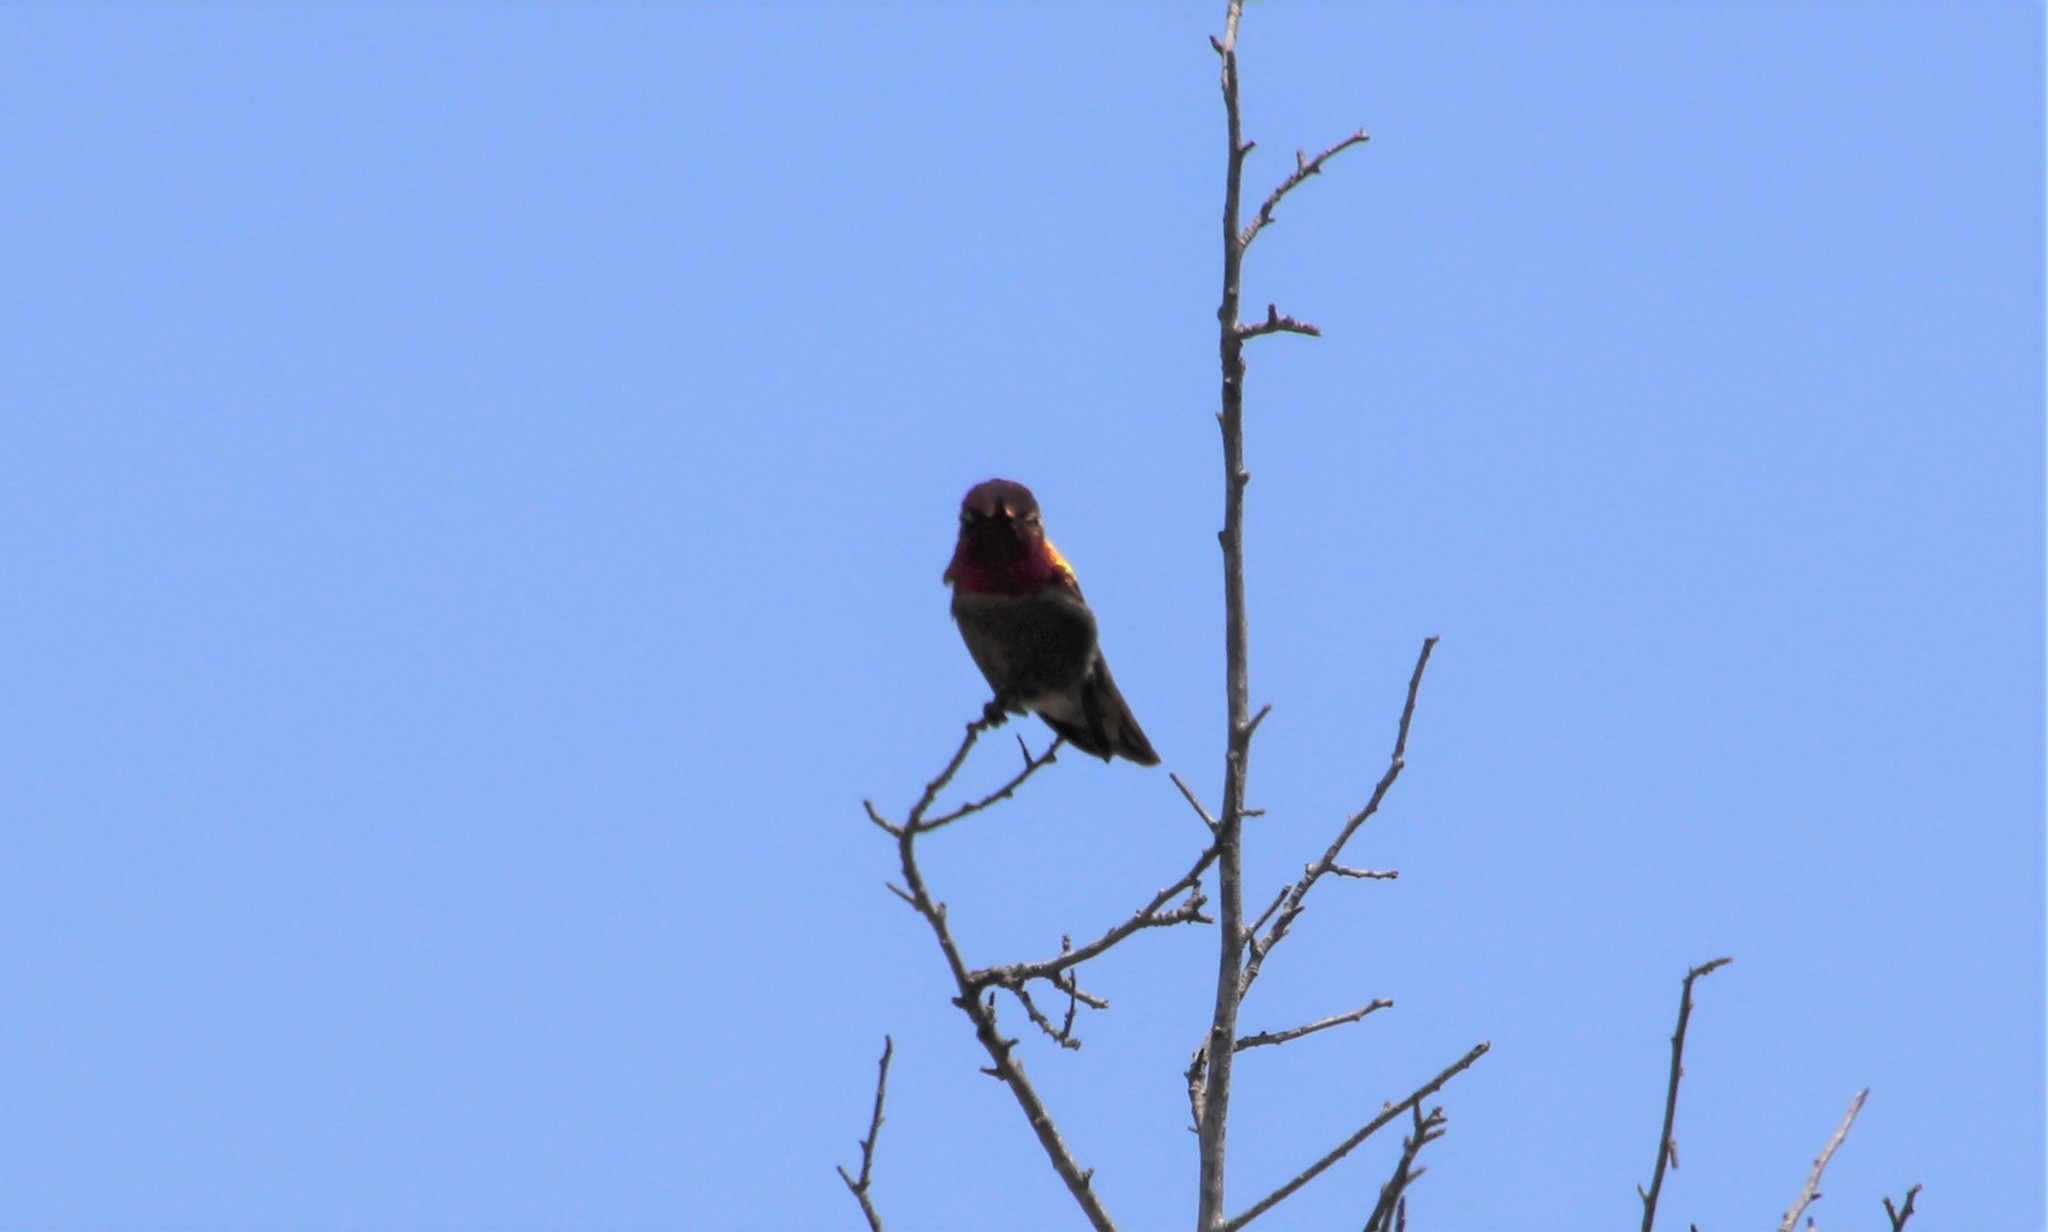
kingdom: Animalia
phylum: Chordata
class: Aves
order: Apodiformes
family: Trochilidae
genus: Calypte
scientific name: Calypte anna
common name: Anna's hummingbird
